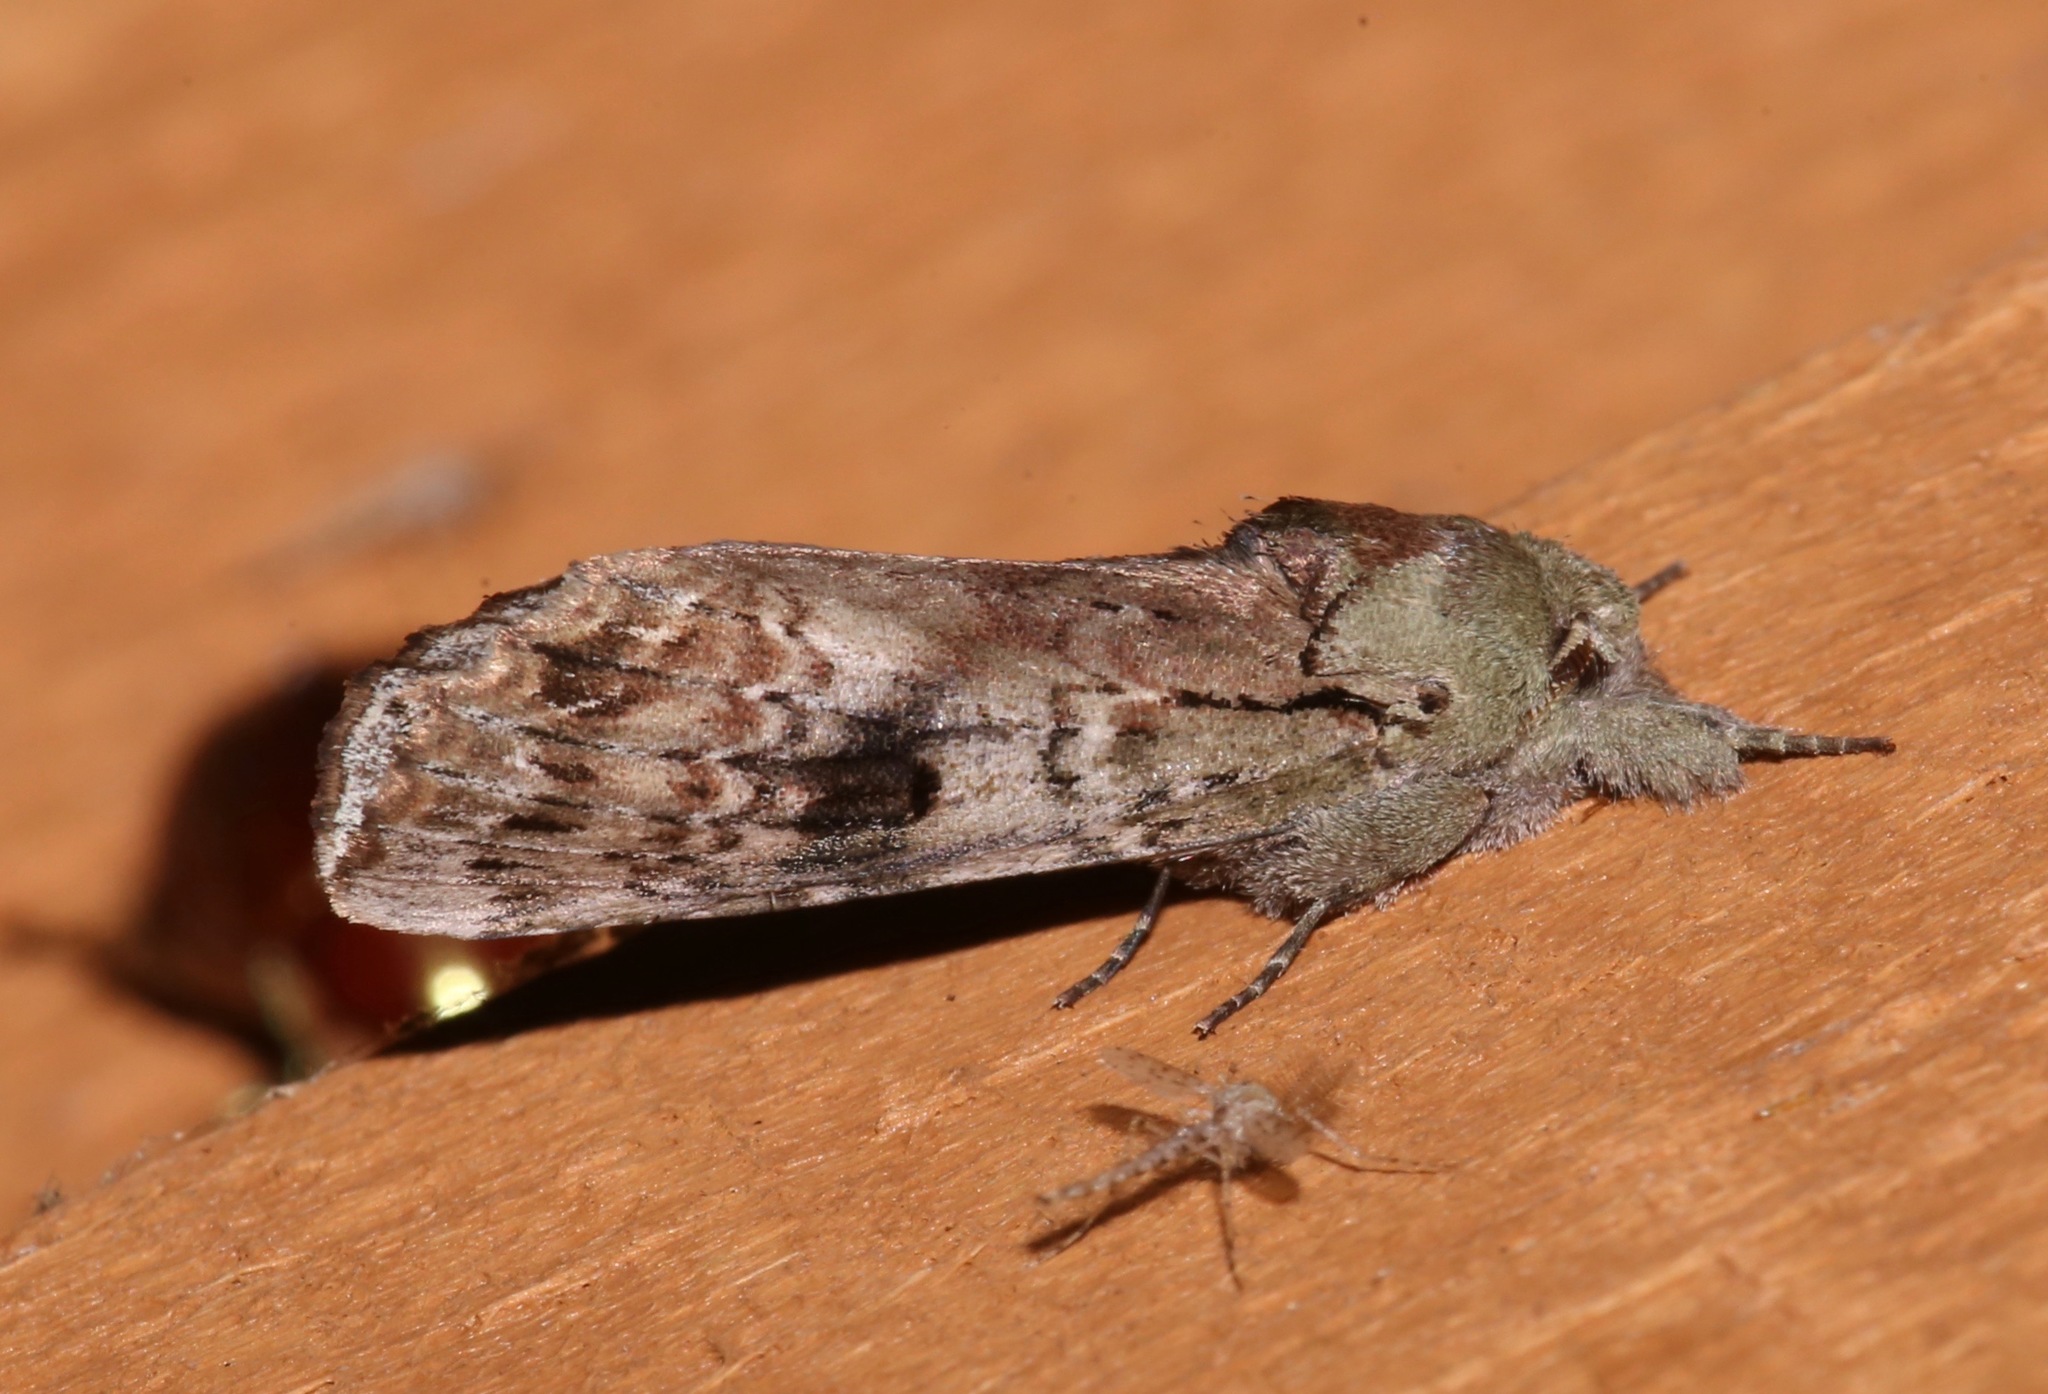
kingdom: Animalia
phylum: Arthropoda
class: Insecta
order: Lepidoptera
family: Notodontidae
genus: Schizura
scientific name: Schizura
